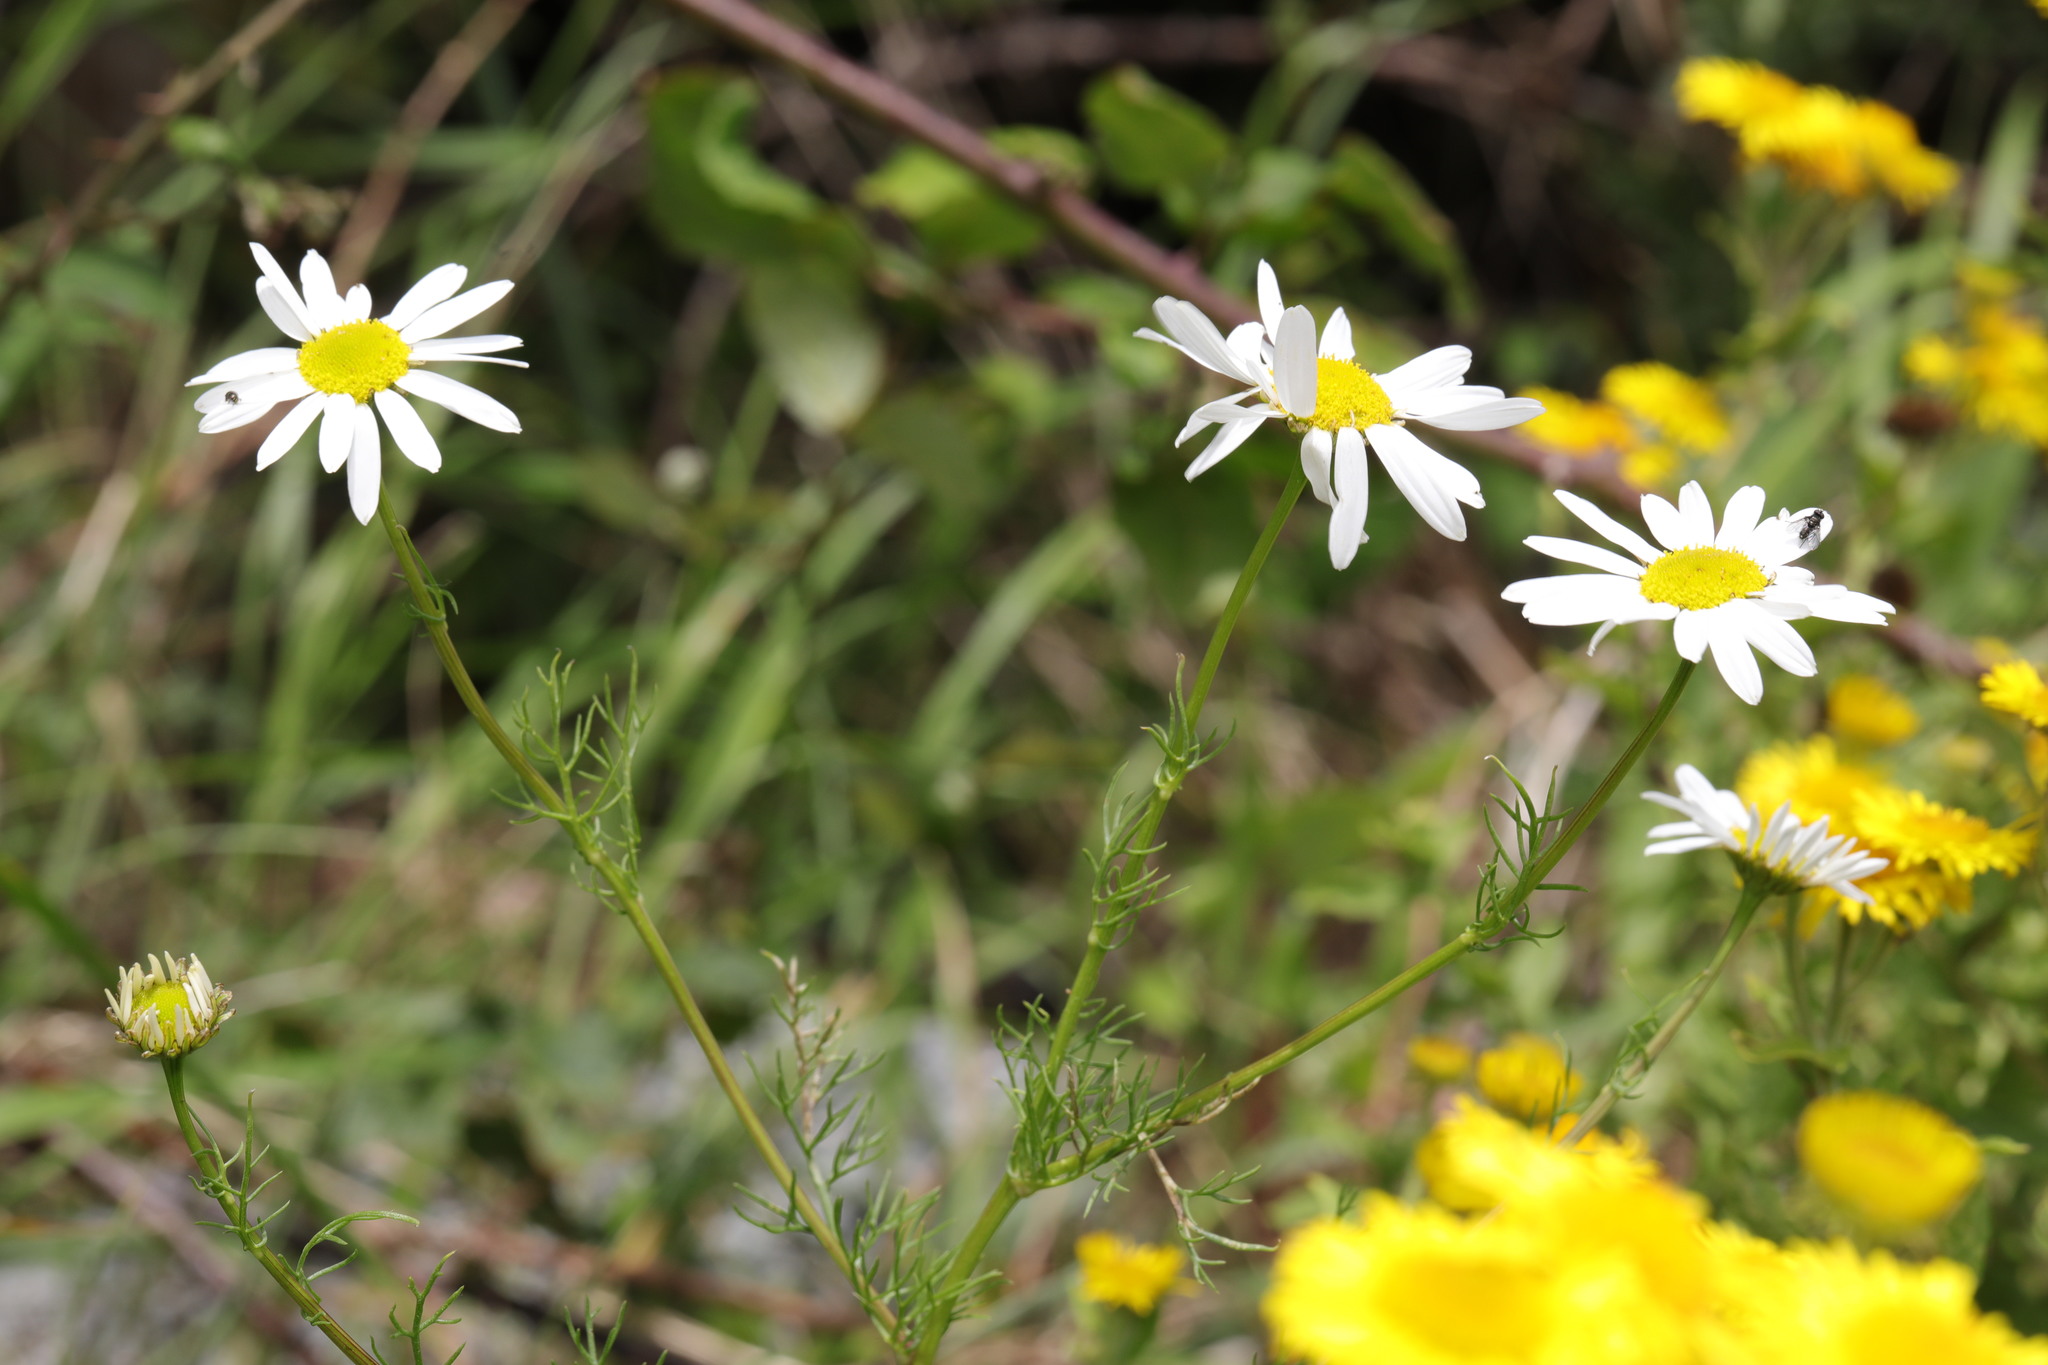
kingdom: Plantae
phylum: Tracheophyta
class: Magnoliopsida
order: Asterales
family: Asteraceae
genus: Tripleurospermum
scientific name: Tripleurospermum inodorum
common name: Scentless mayweed
